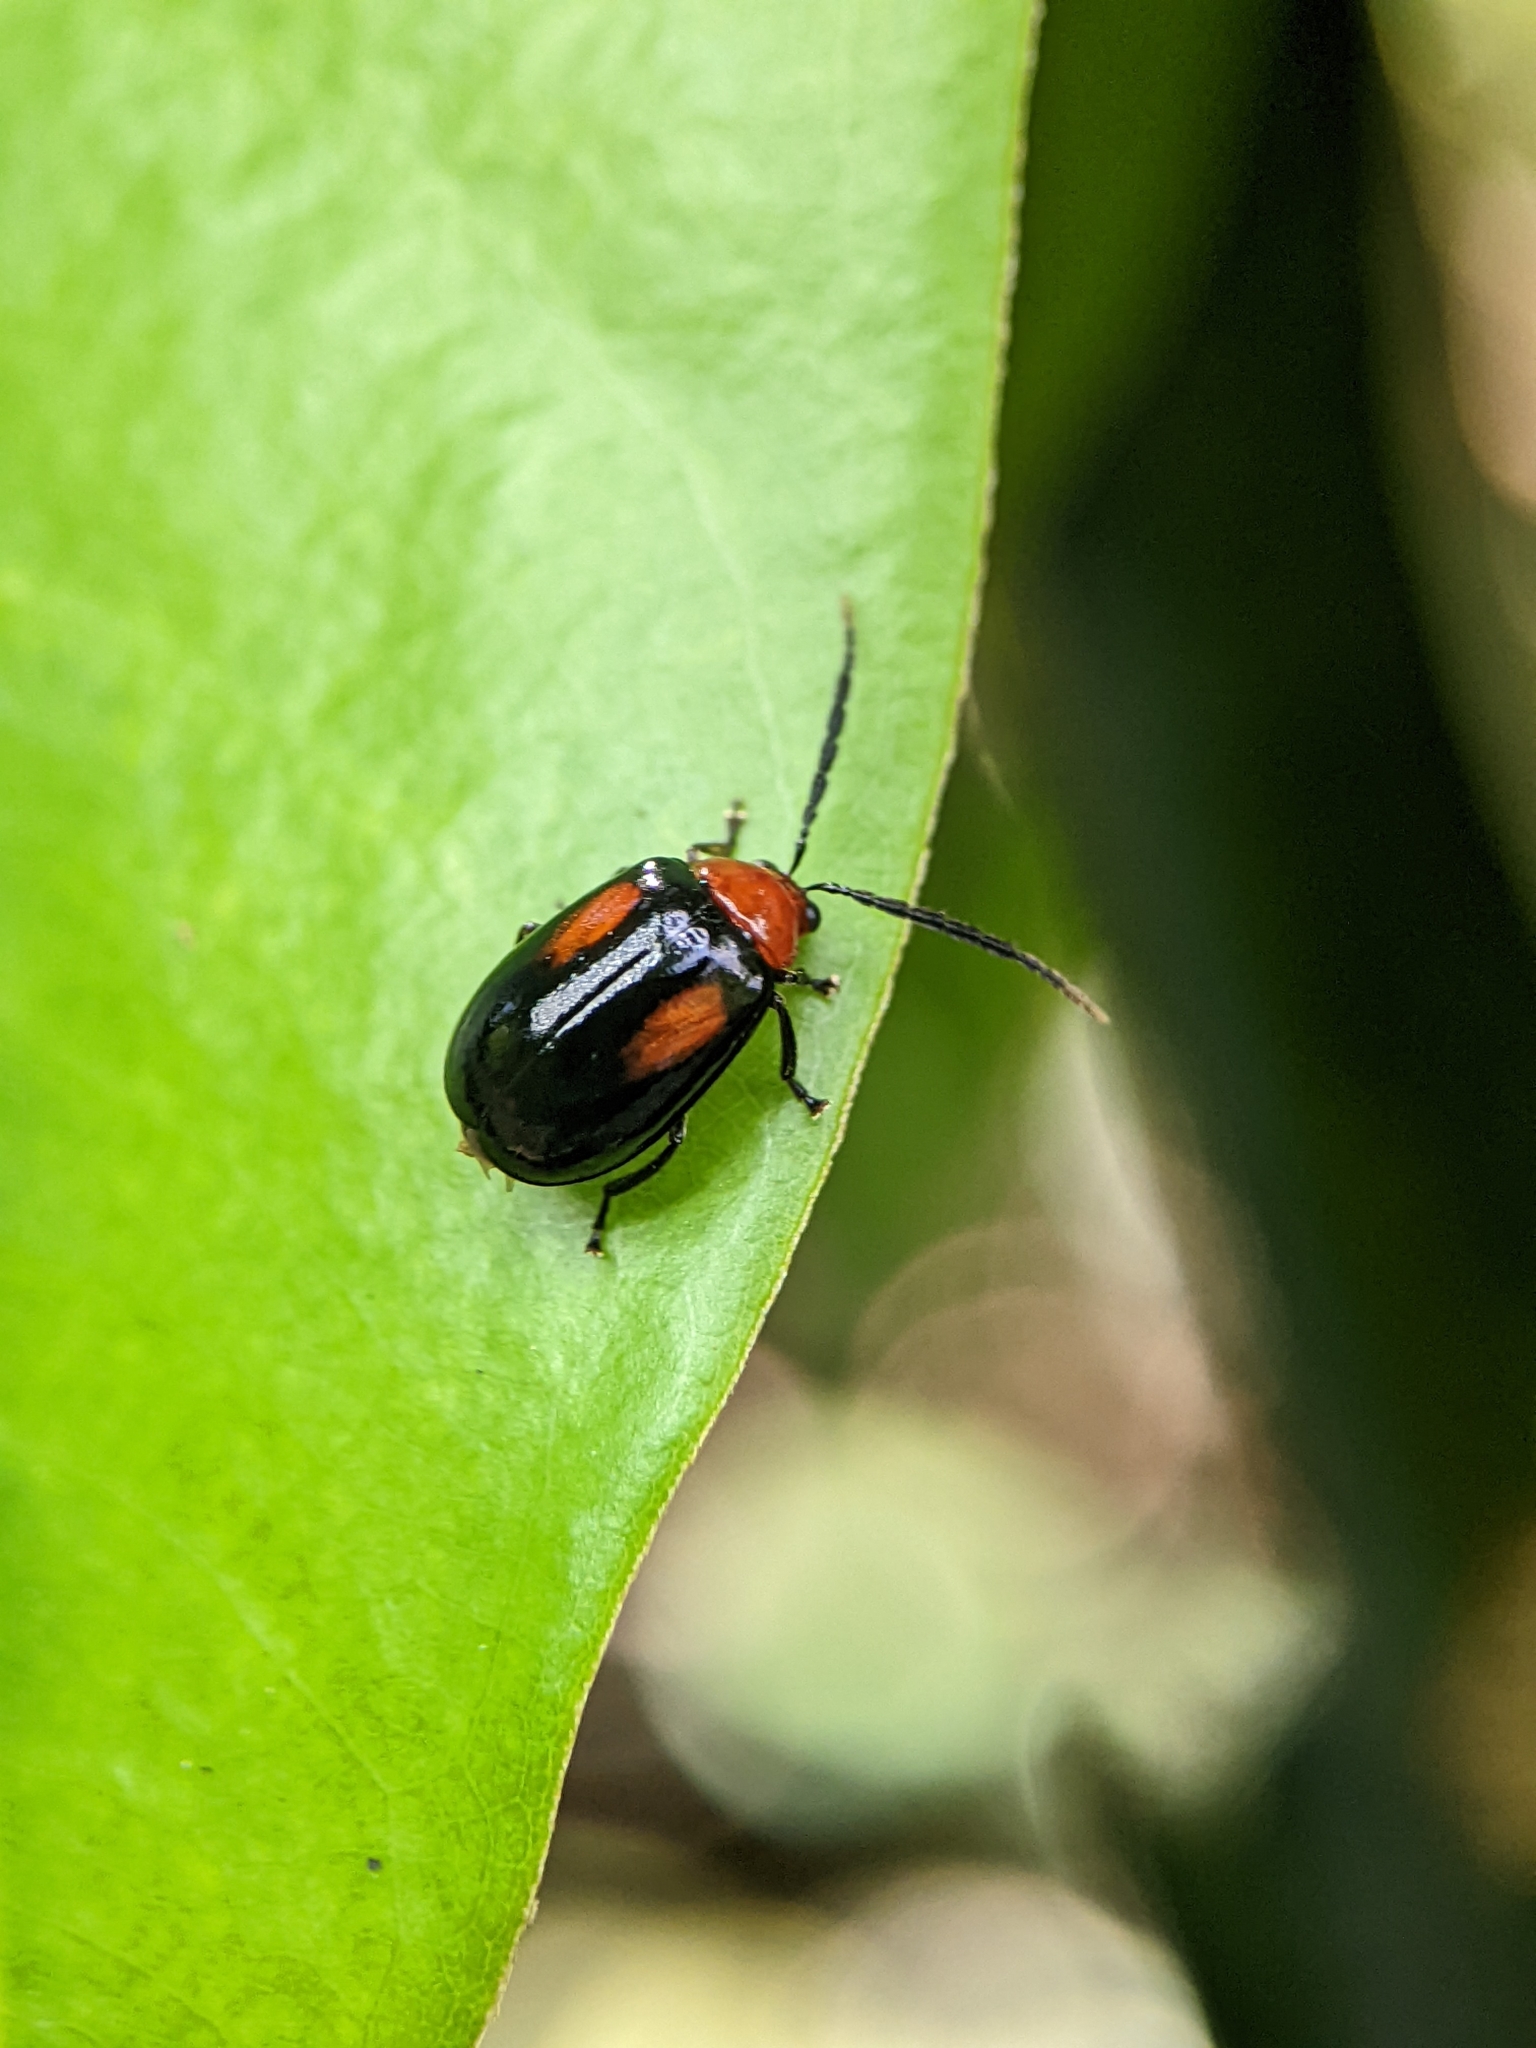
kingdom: Animalia
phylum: Arthropoda
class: Insecta
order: Coleoptera
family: Chrysomelidae
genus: Arcastes
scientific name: Arcastes biplagiata
